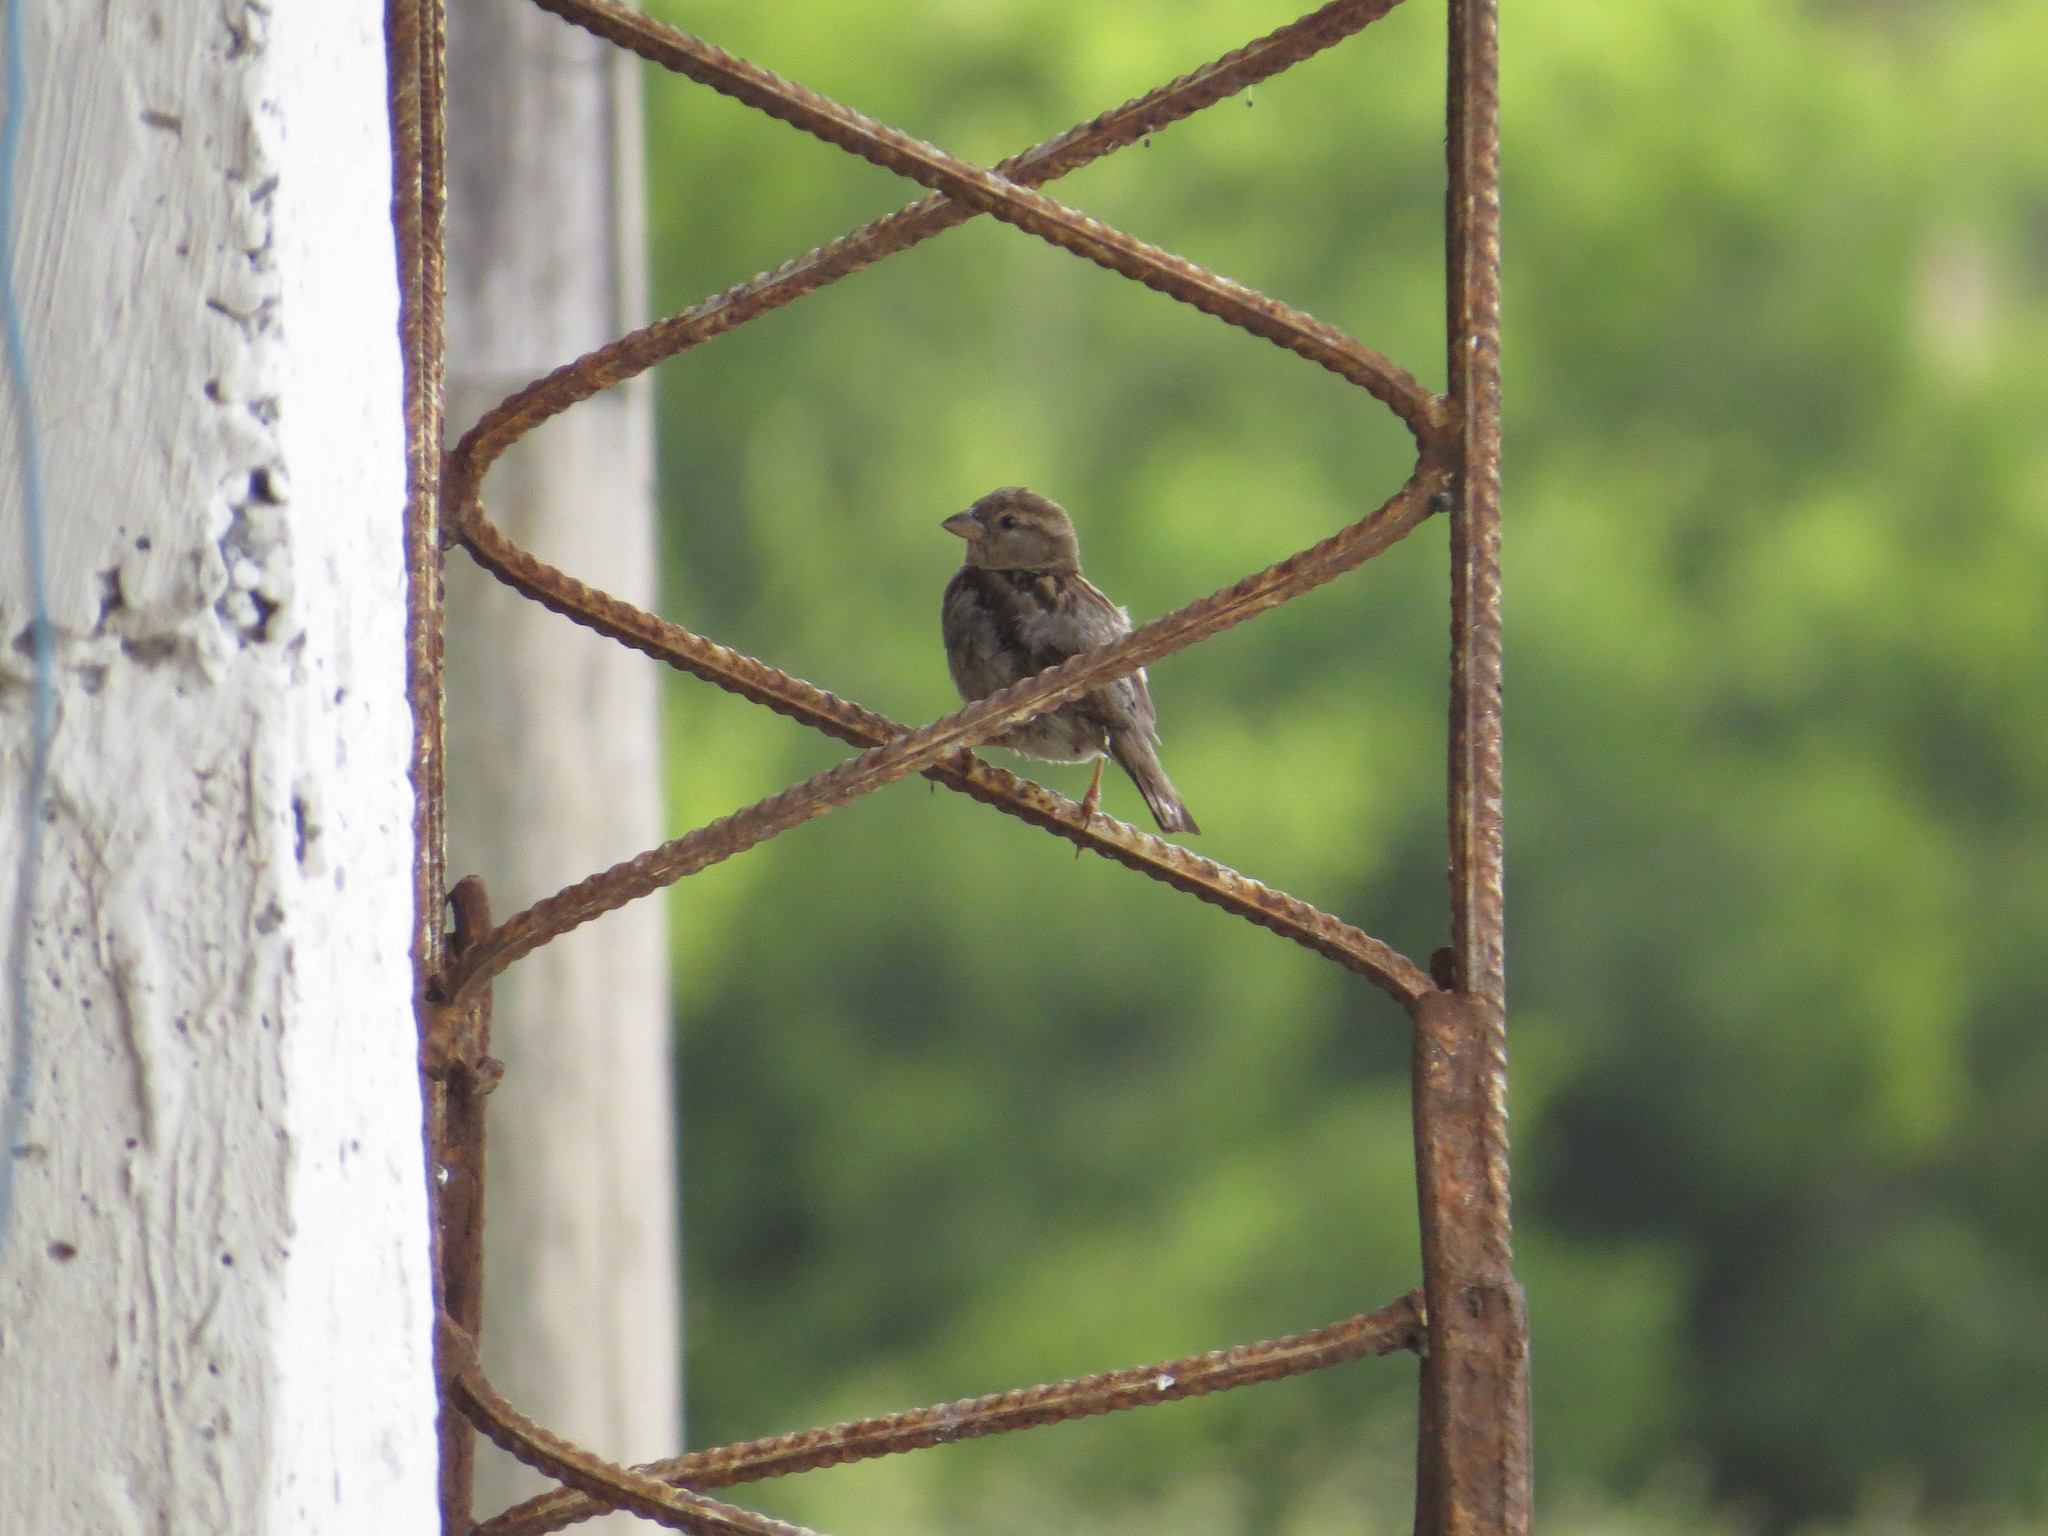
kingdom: Animalia
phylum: Chordata
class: Aves
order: Passeriformes
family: Passeridae
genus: Passer
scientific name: Passer domesticus
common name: House sparrow
